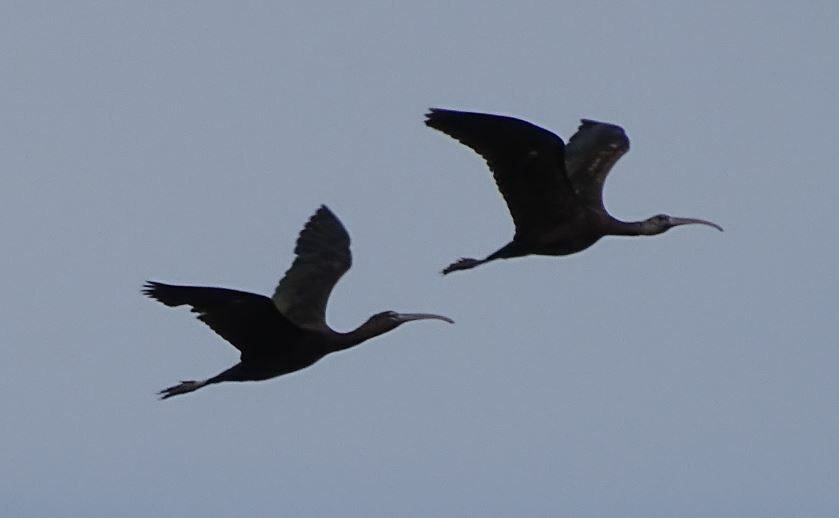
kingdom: Animalia
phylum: Chordata
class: Aves
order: Pelecaniformes
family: Threskiornithidae
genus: Plegadis
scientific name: Plegadis falcinellus
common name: Glossy ibis
